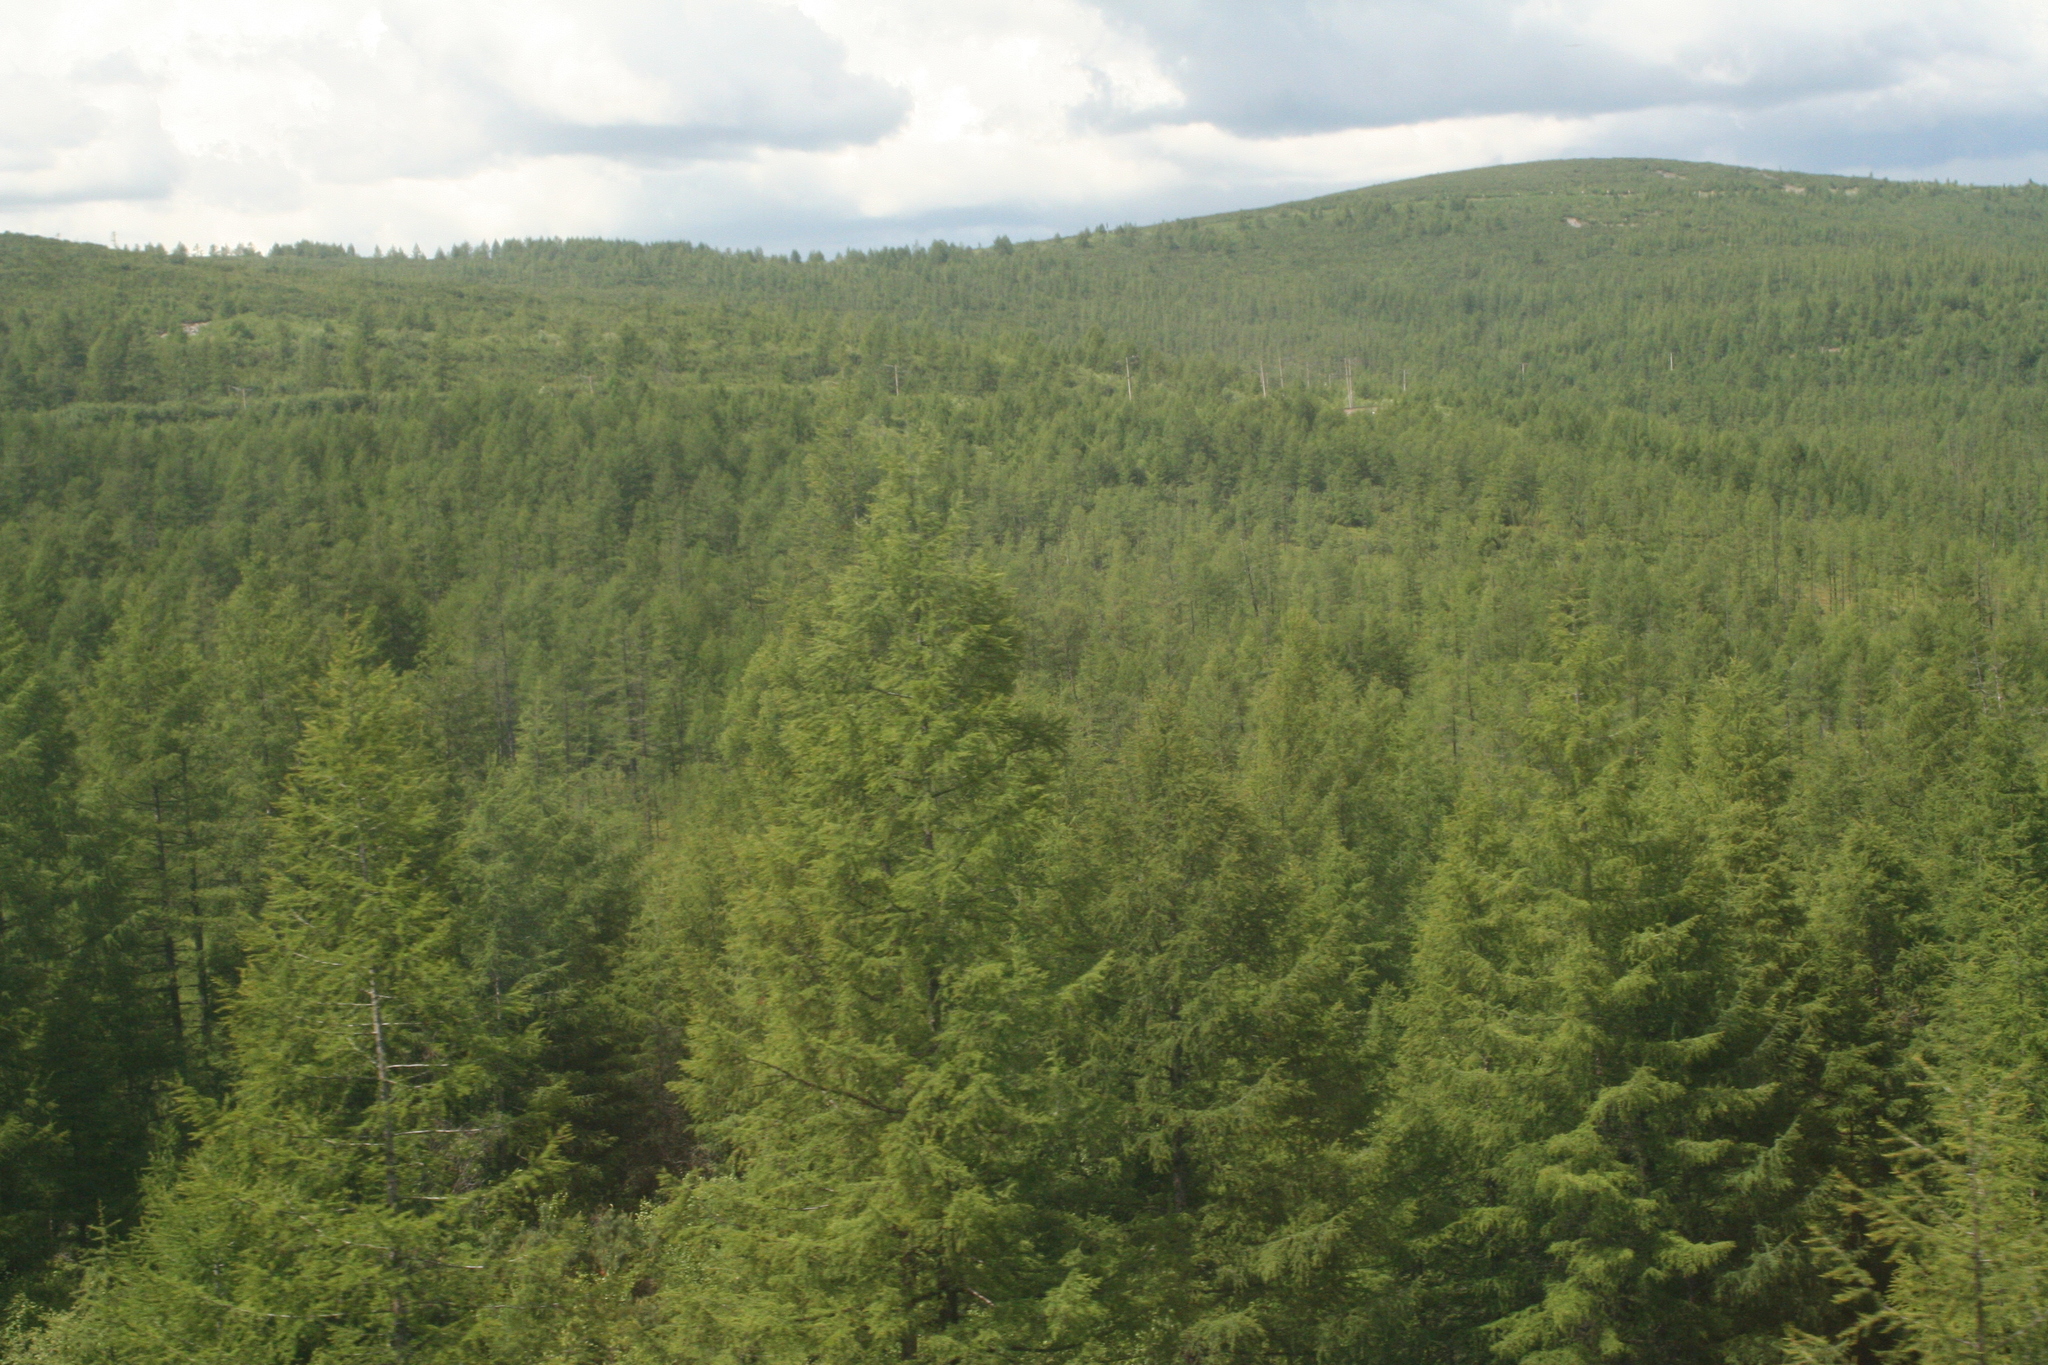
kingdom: Plantae
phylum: Tracheophyta
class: Pinopsida
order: Pinales
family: Pinaceae
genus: Larix
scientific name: Larix gmelinii
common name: Dahurian larch
